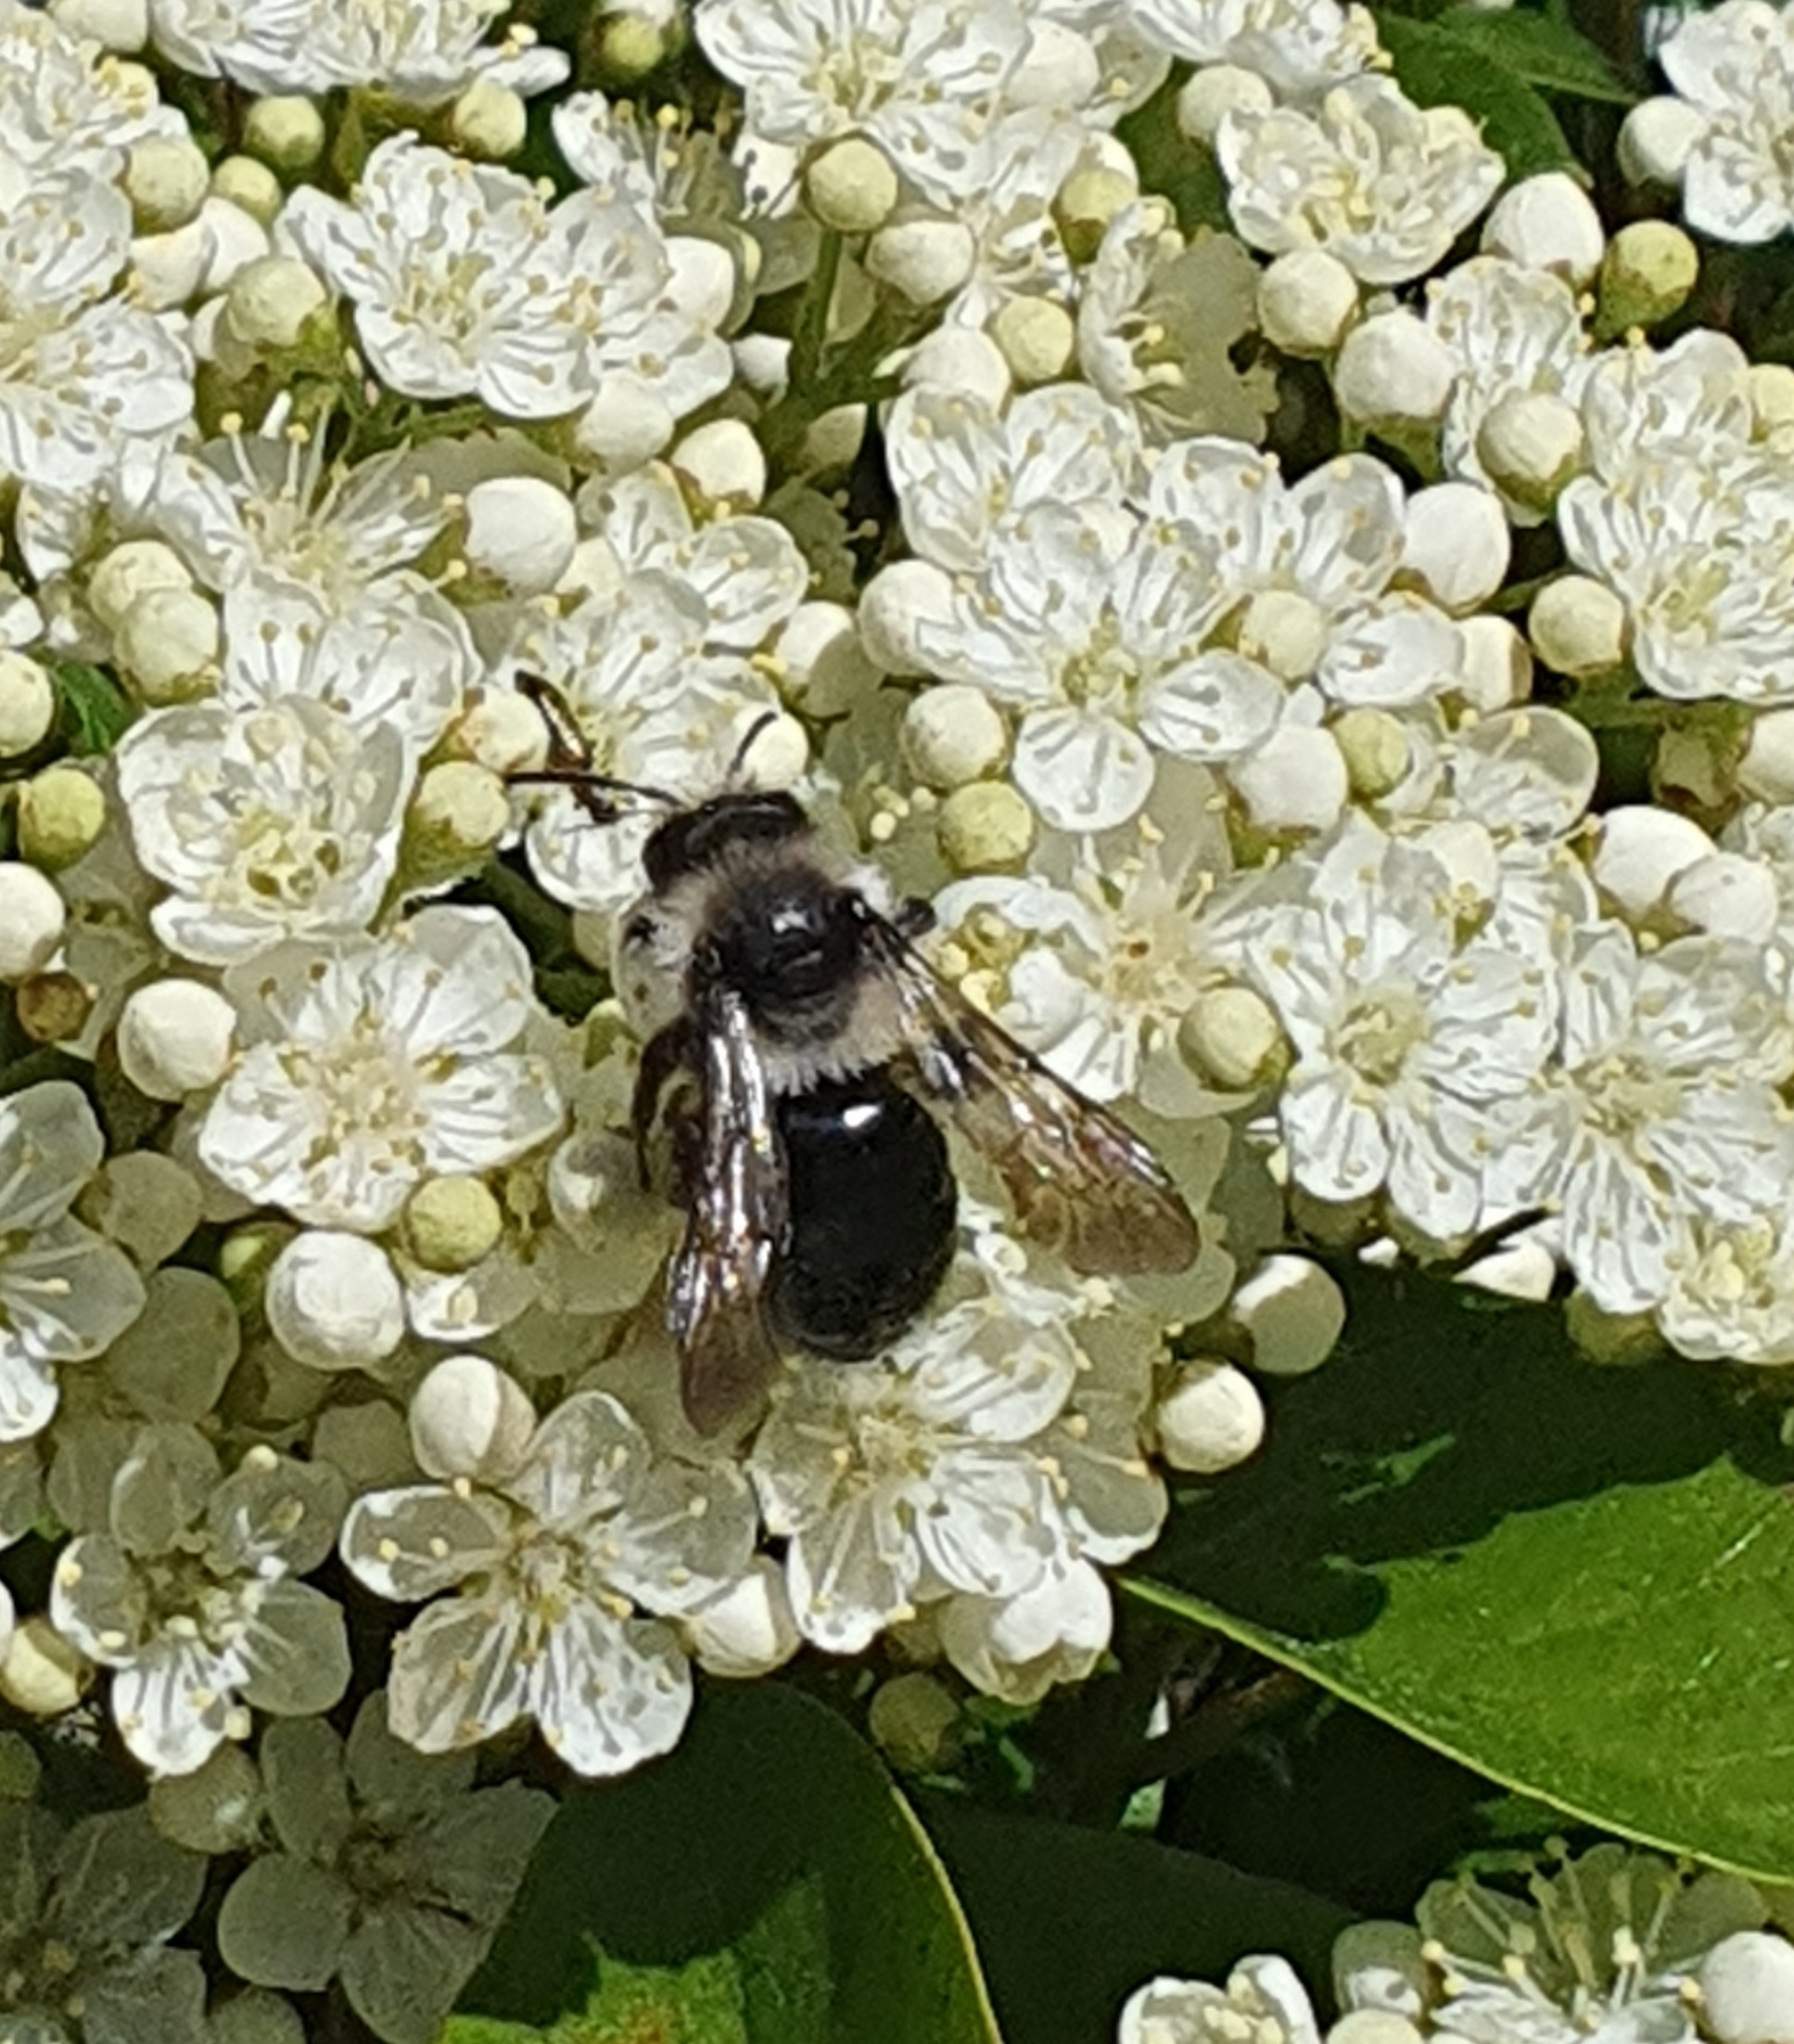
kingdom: Animalia
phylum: Arthropoda
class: Insecta
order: Hymenoptera
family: Andrenidae
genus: Andrena
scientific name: Andrena cineraria
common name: Ashy mining bee
